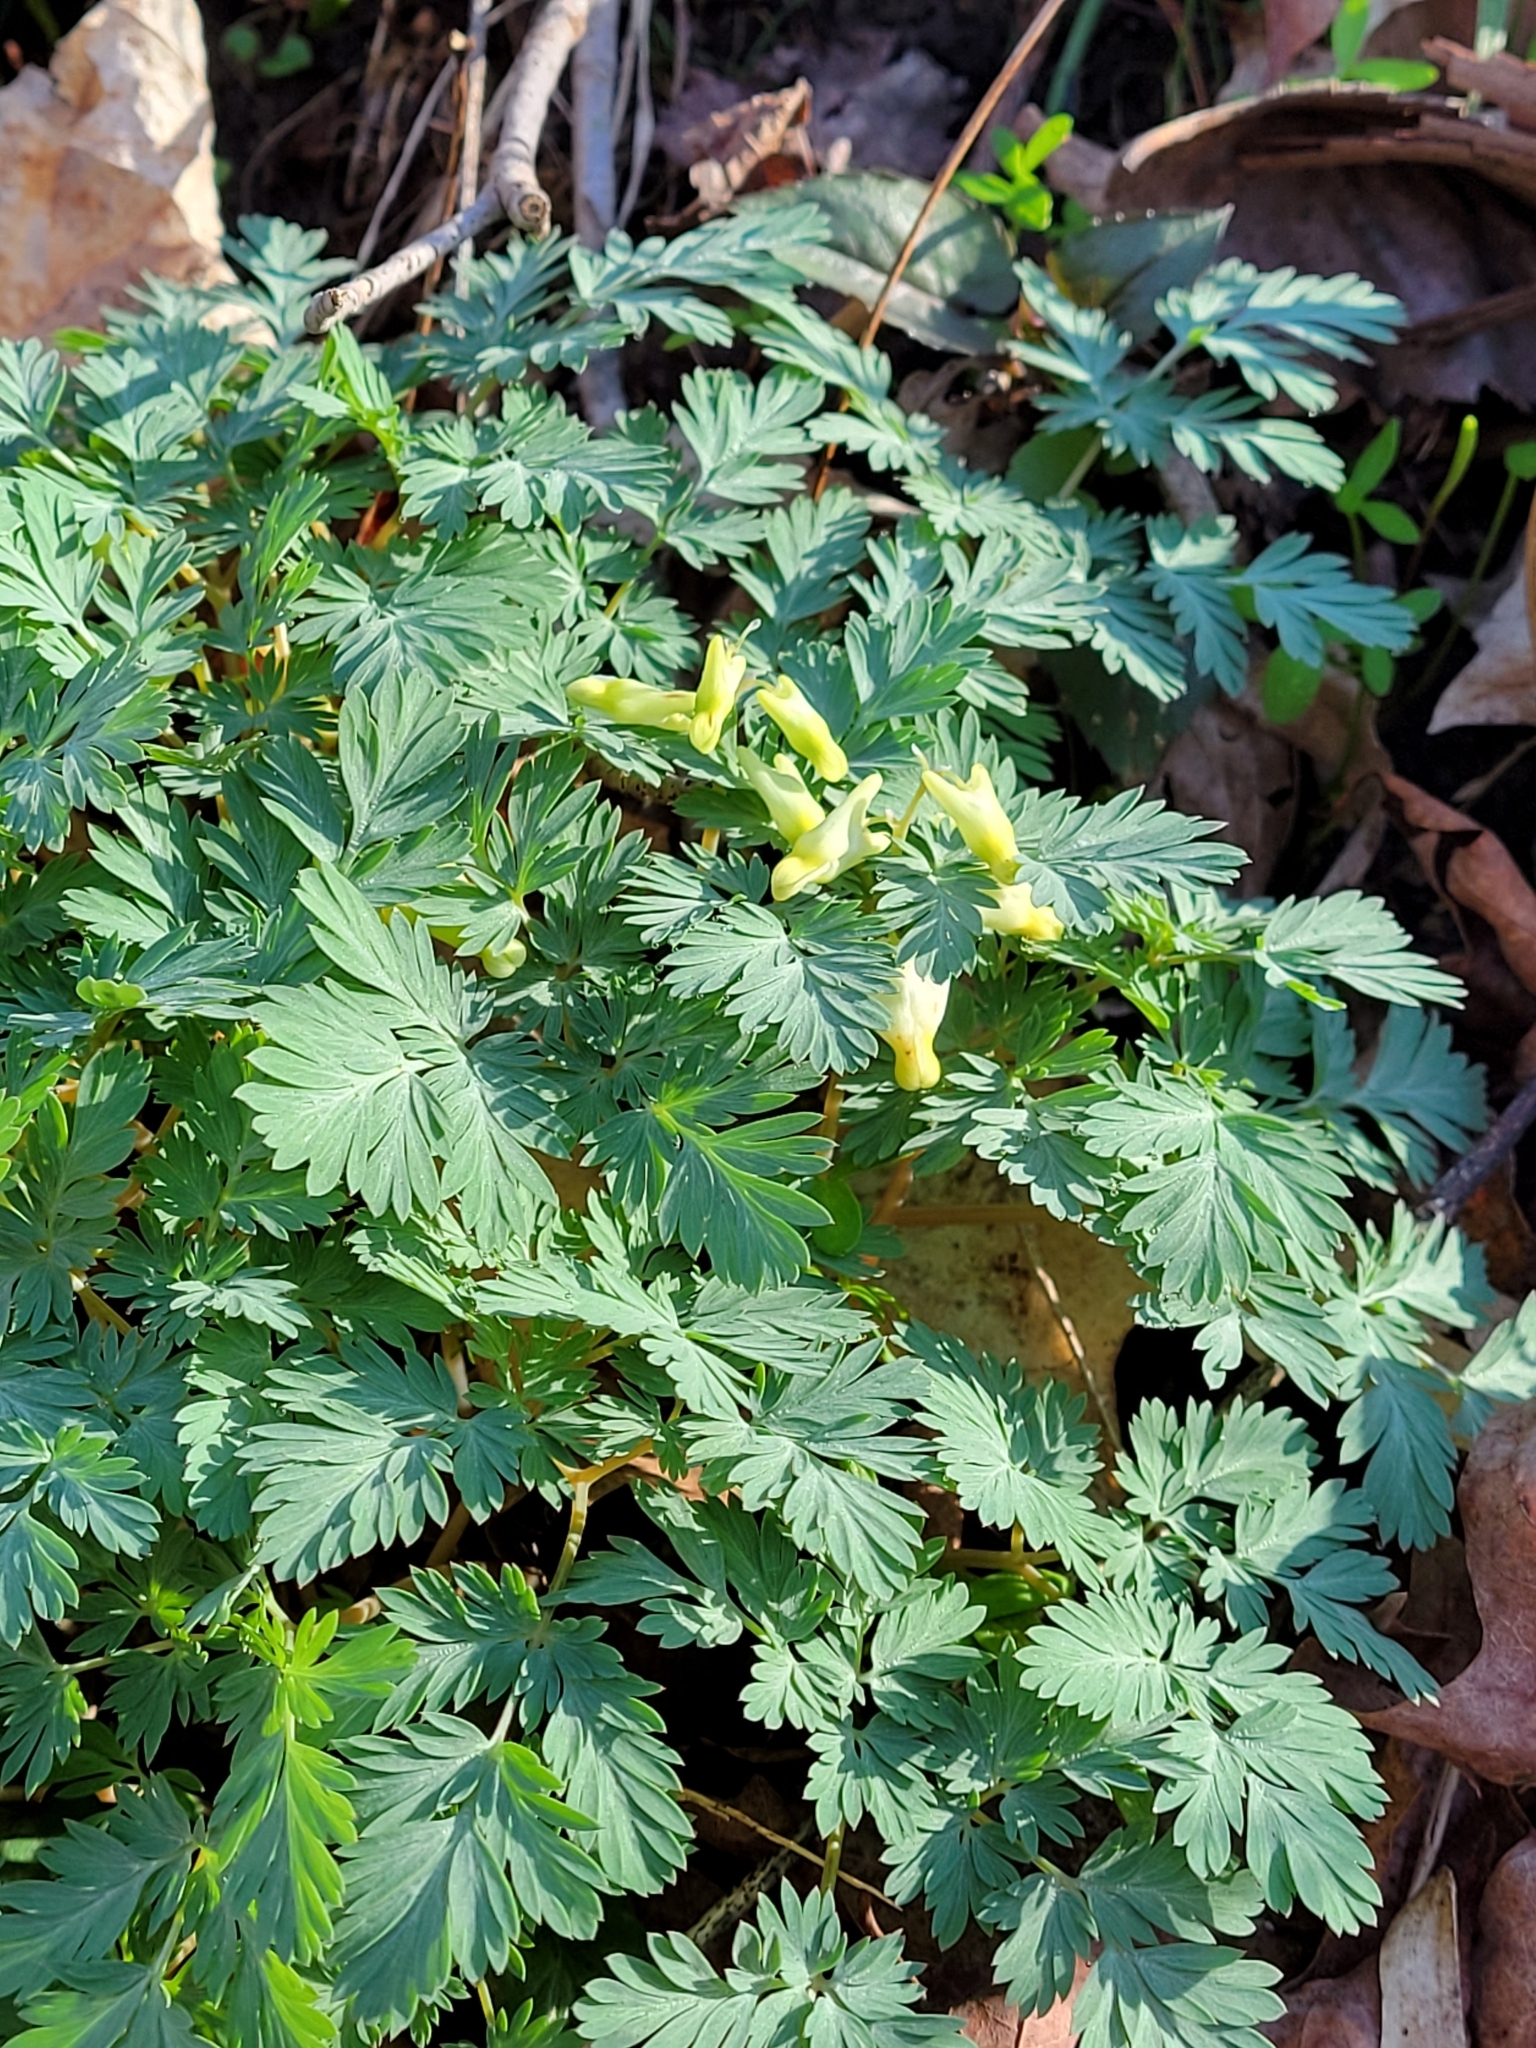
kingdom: Plantae
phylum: Tracheophyta
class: Magnoliopsida
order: Ranunculales
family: Papaveraceae
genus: Dicentra
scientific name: Dicentra cucullaria
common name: Dutchman's breeches
